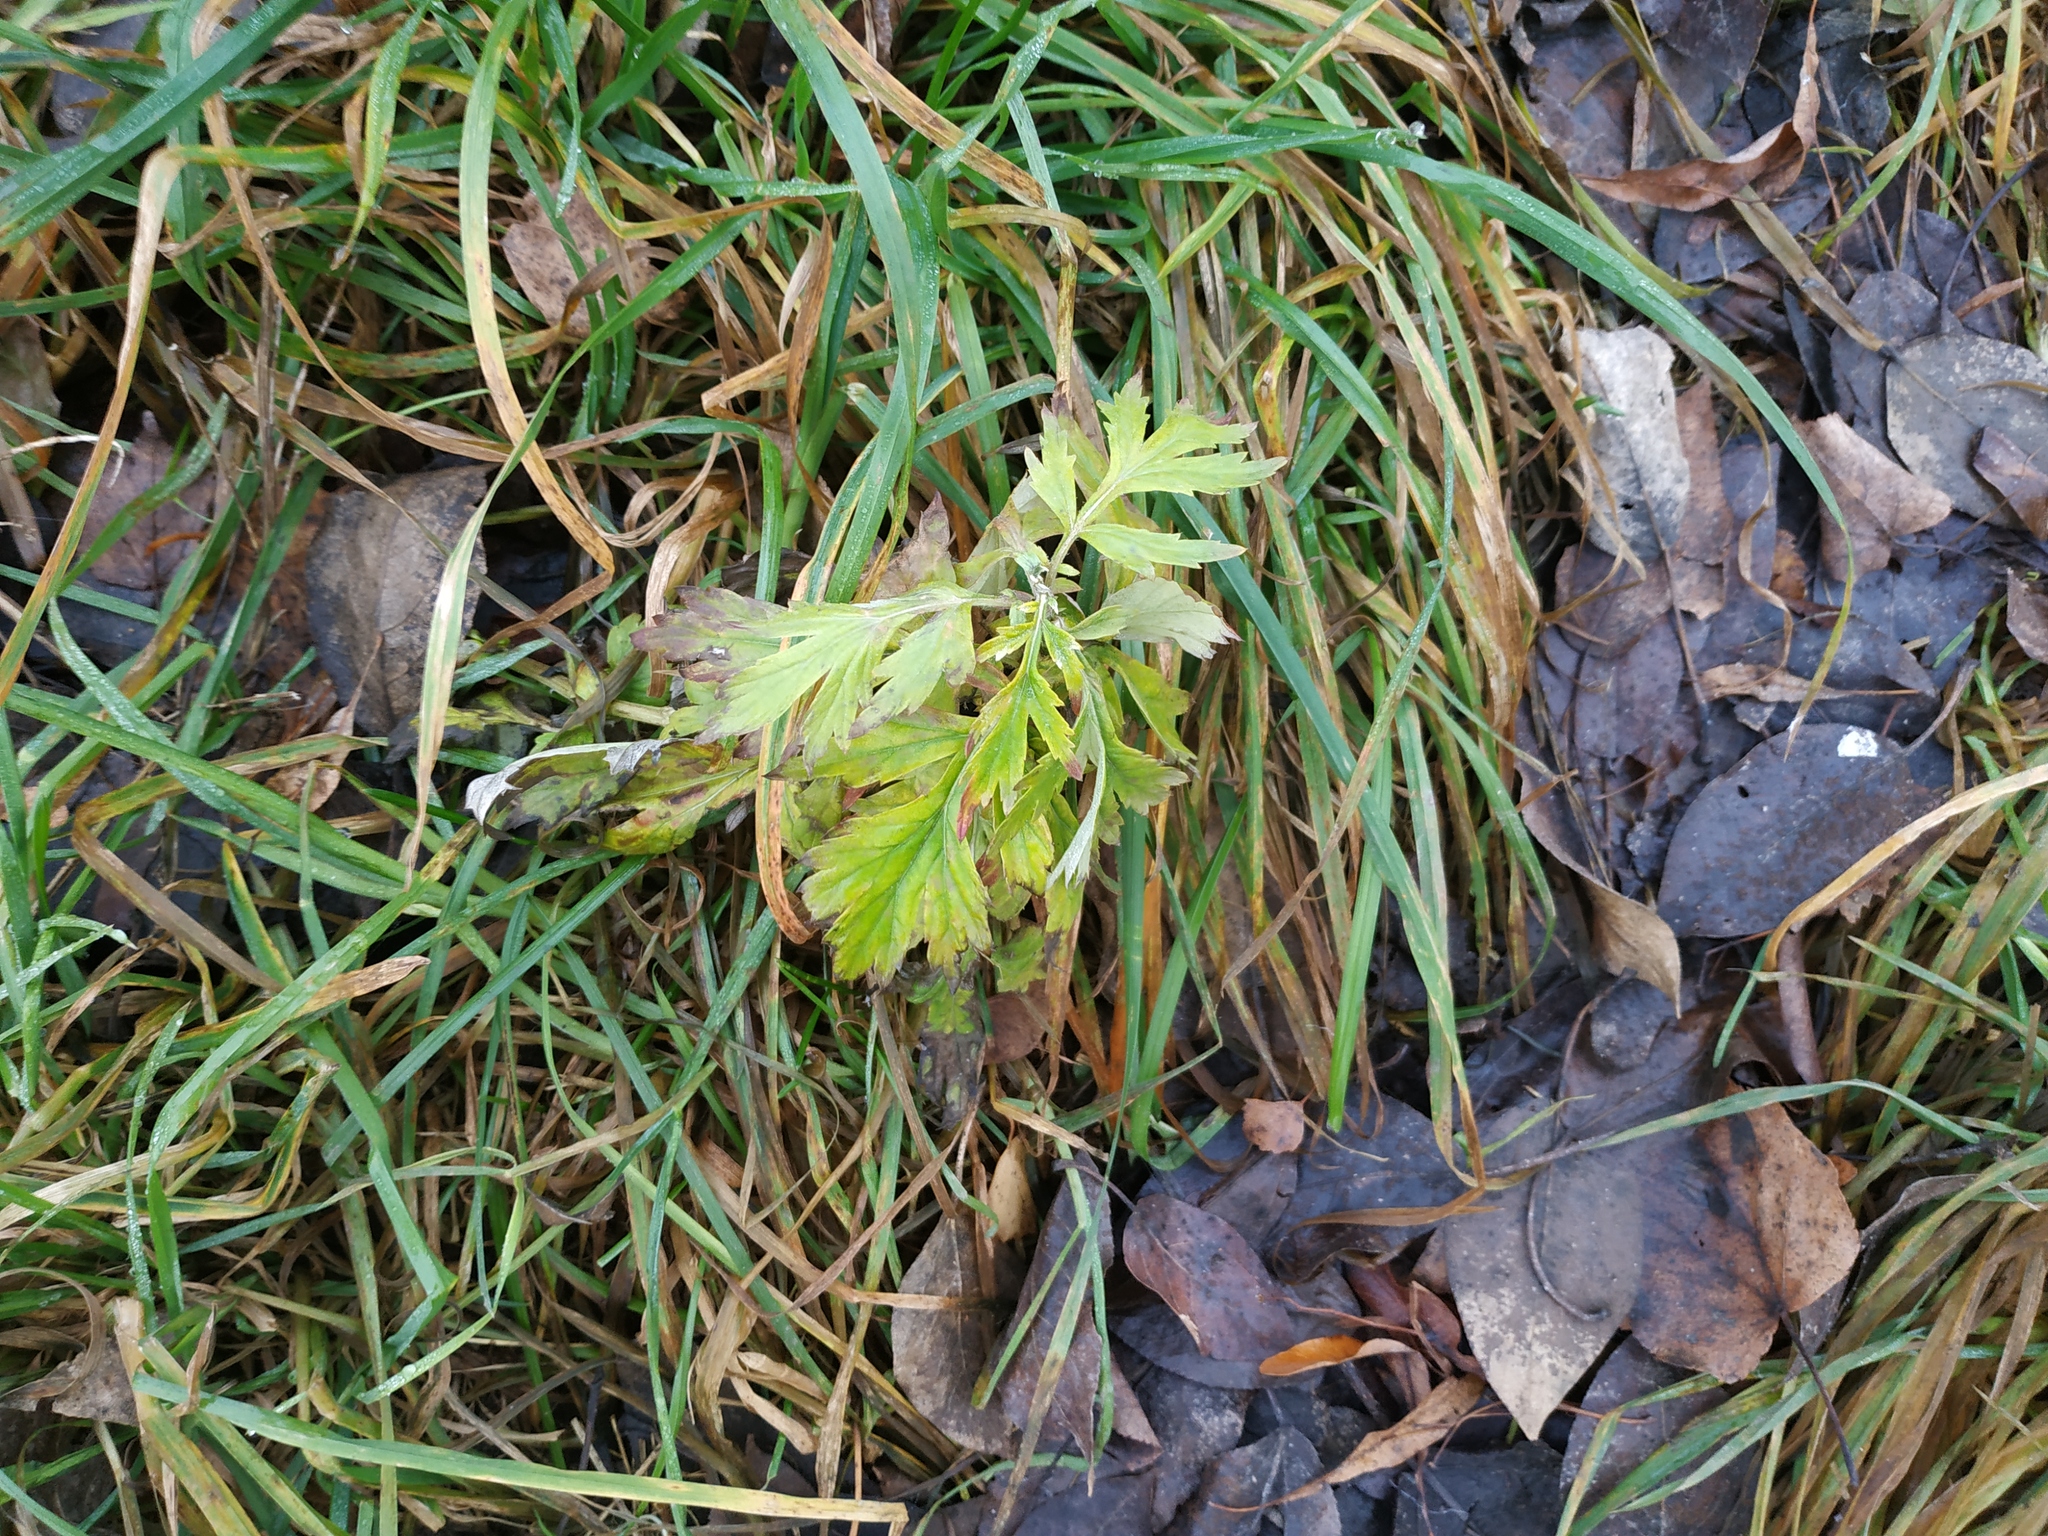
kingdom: Plantae
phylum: Tracheophyta
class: Magnoliopsida
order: Asterales
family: Asteraceae
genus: Artemisia
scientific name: Artemisia vulgaris
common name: Mugwort
